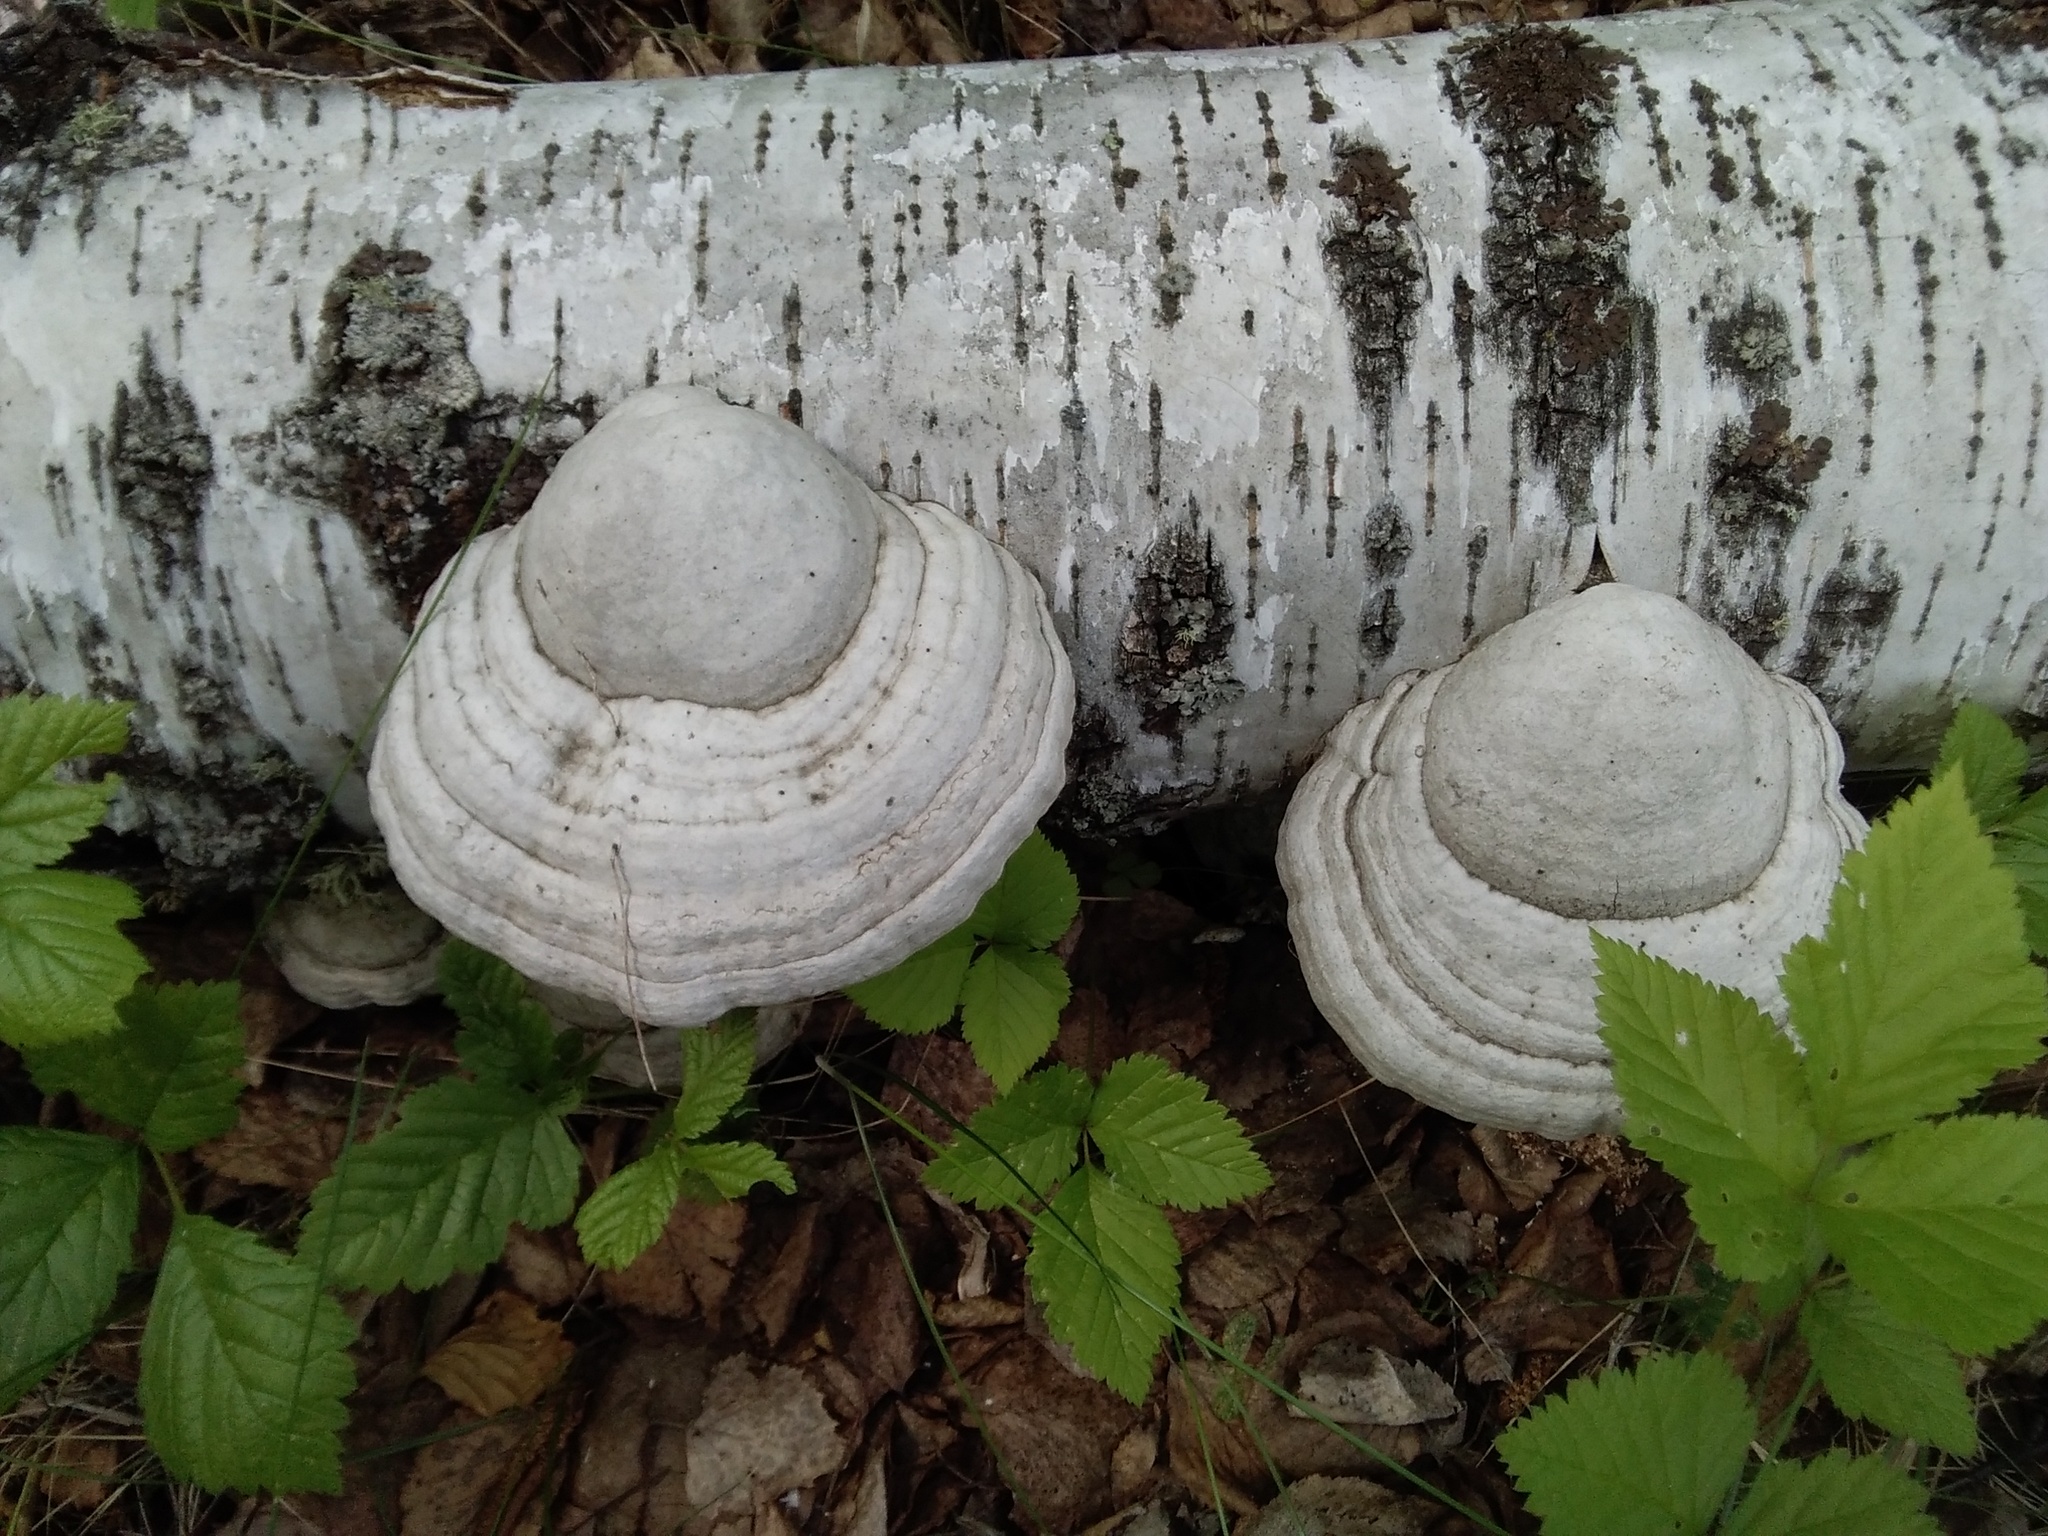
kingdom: Fungi
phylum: Basidiomycota
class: Agaricomycetes
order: Polyporales
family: Polyporaceae
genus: Fomes
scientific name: Fomes fomentarius
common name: Hoof fungus
